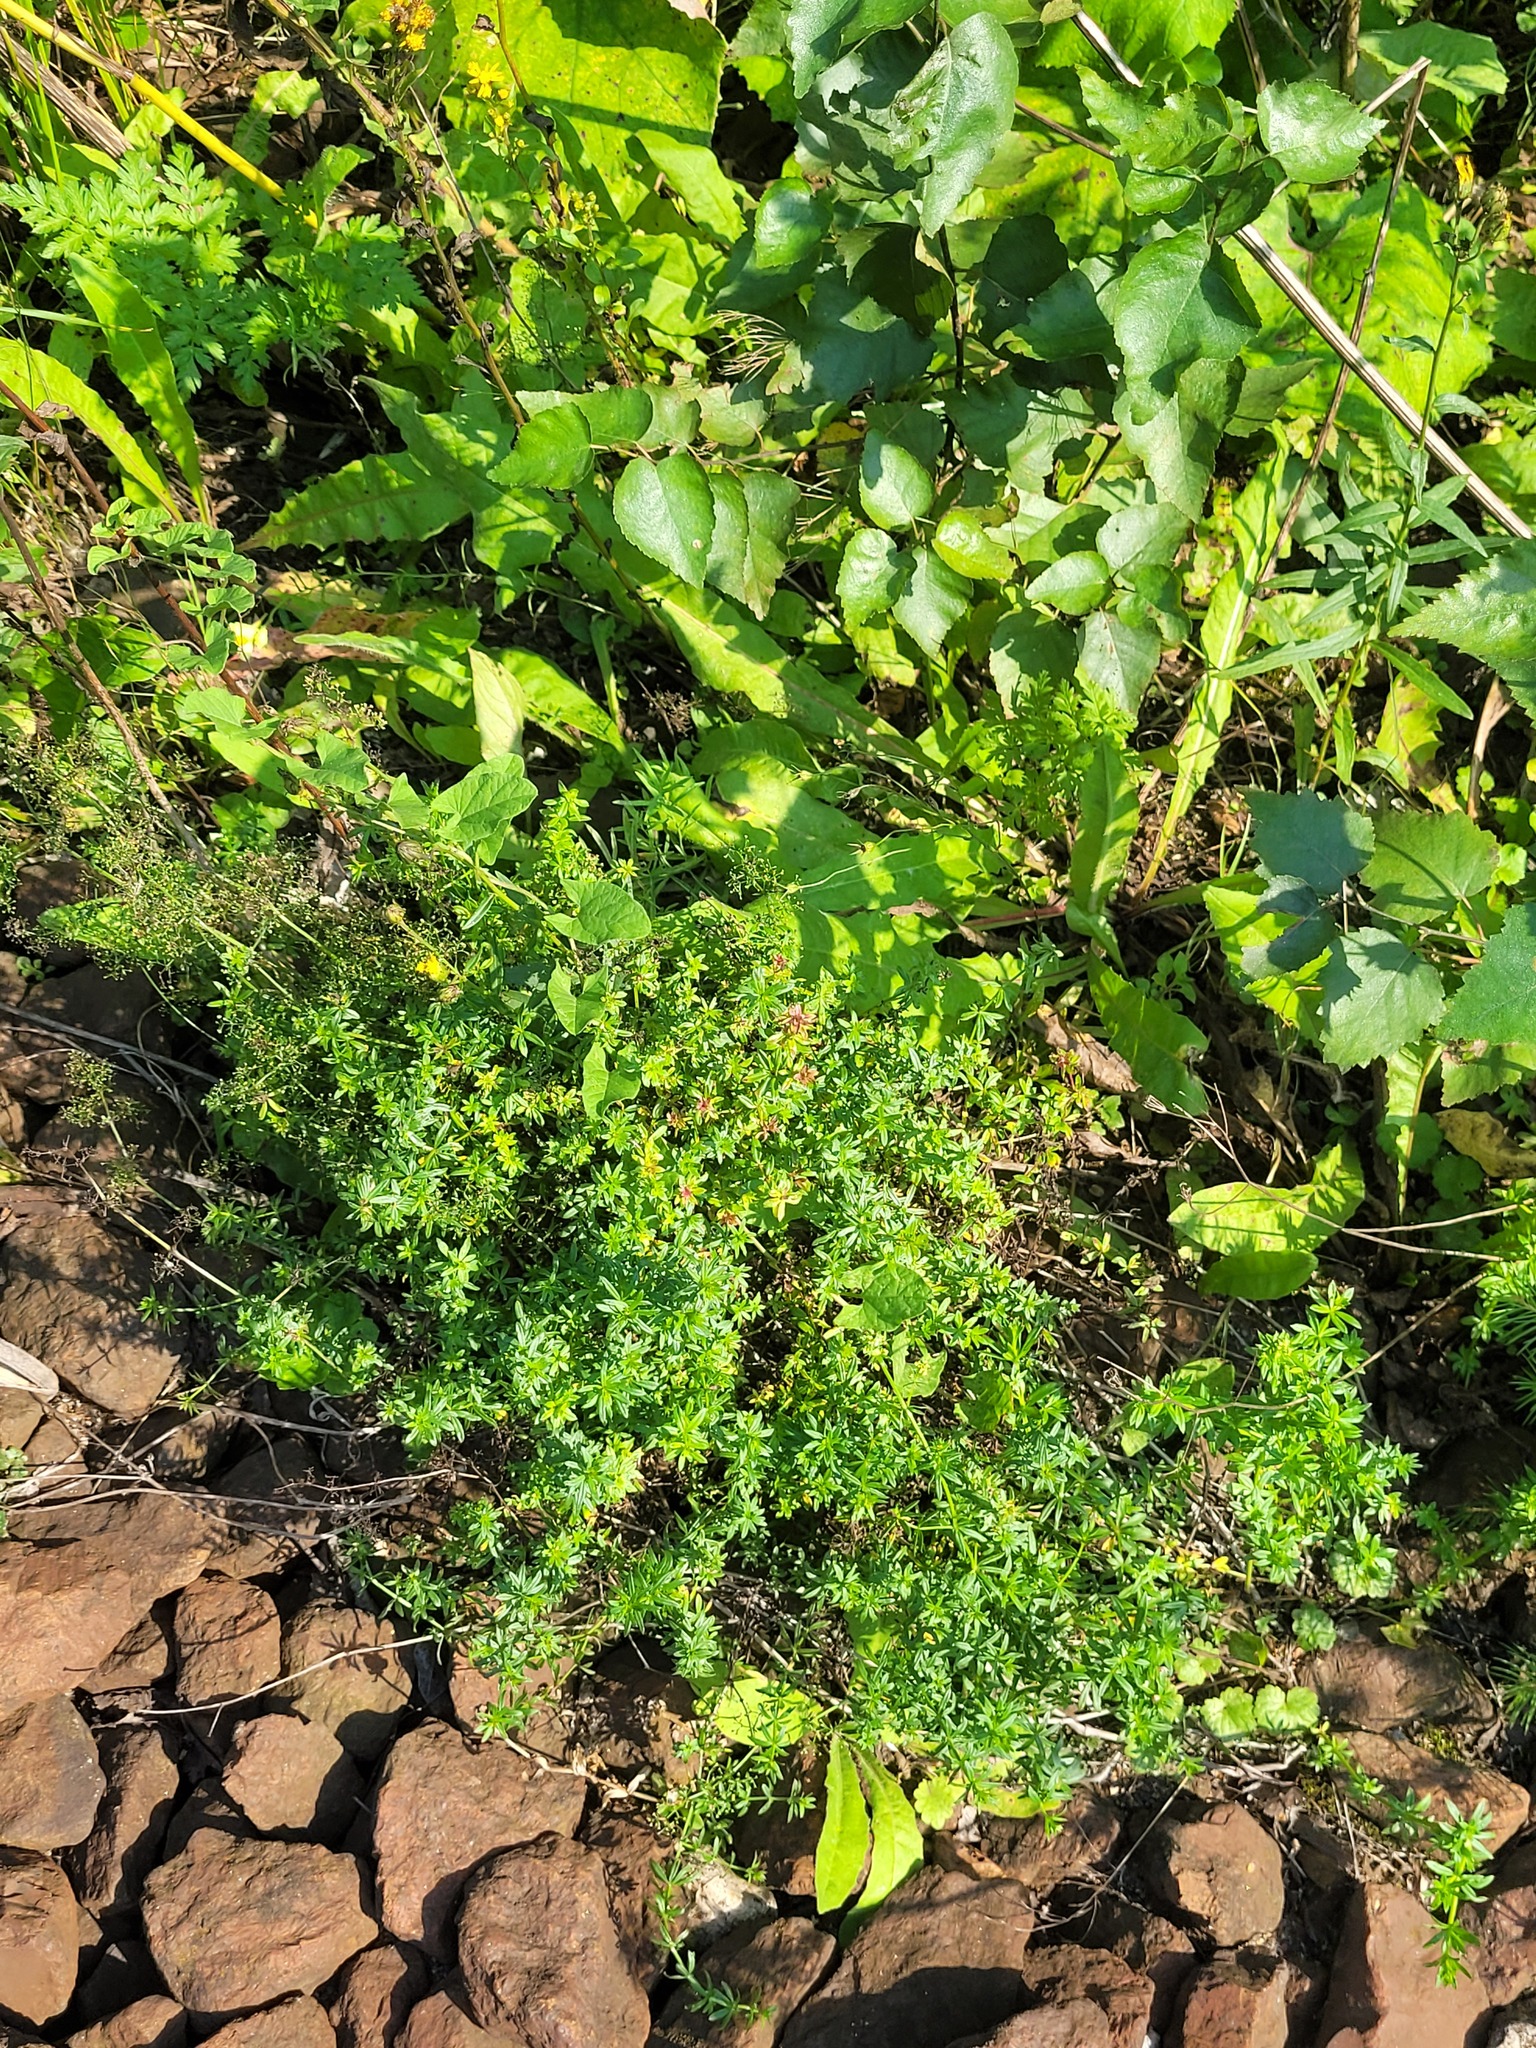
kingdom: Plantae
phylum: Tracheophyta
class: Magnoliopsida
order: Gentianales
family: Rubiaceae
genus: Galium
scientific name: Galium mollugo
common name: Hedge bedstraw
